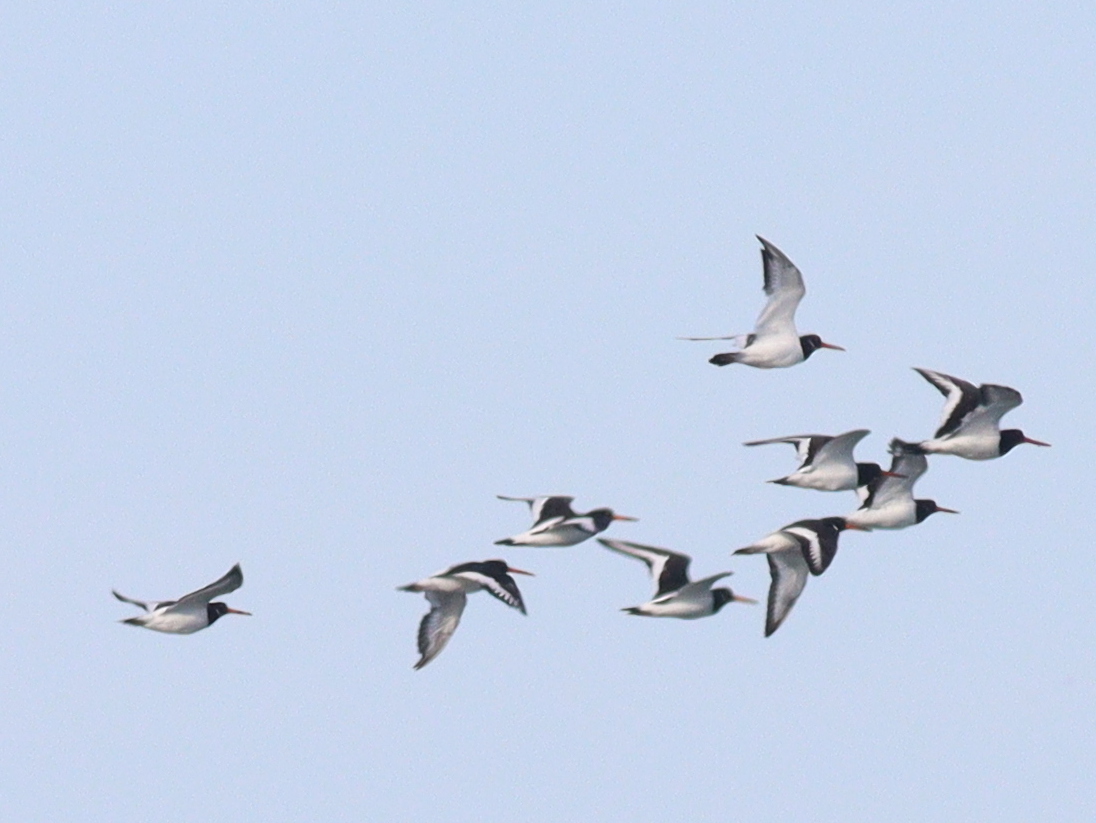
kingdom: Animalia
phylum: Chordata
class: Aves
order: Charadriiformes
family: Haematopodidae
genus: Haematopus
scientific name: Haematopus ostralegus
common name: Eurasian oystercatcher
